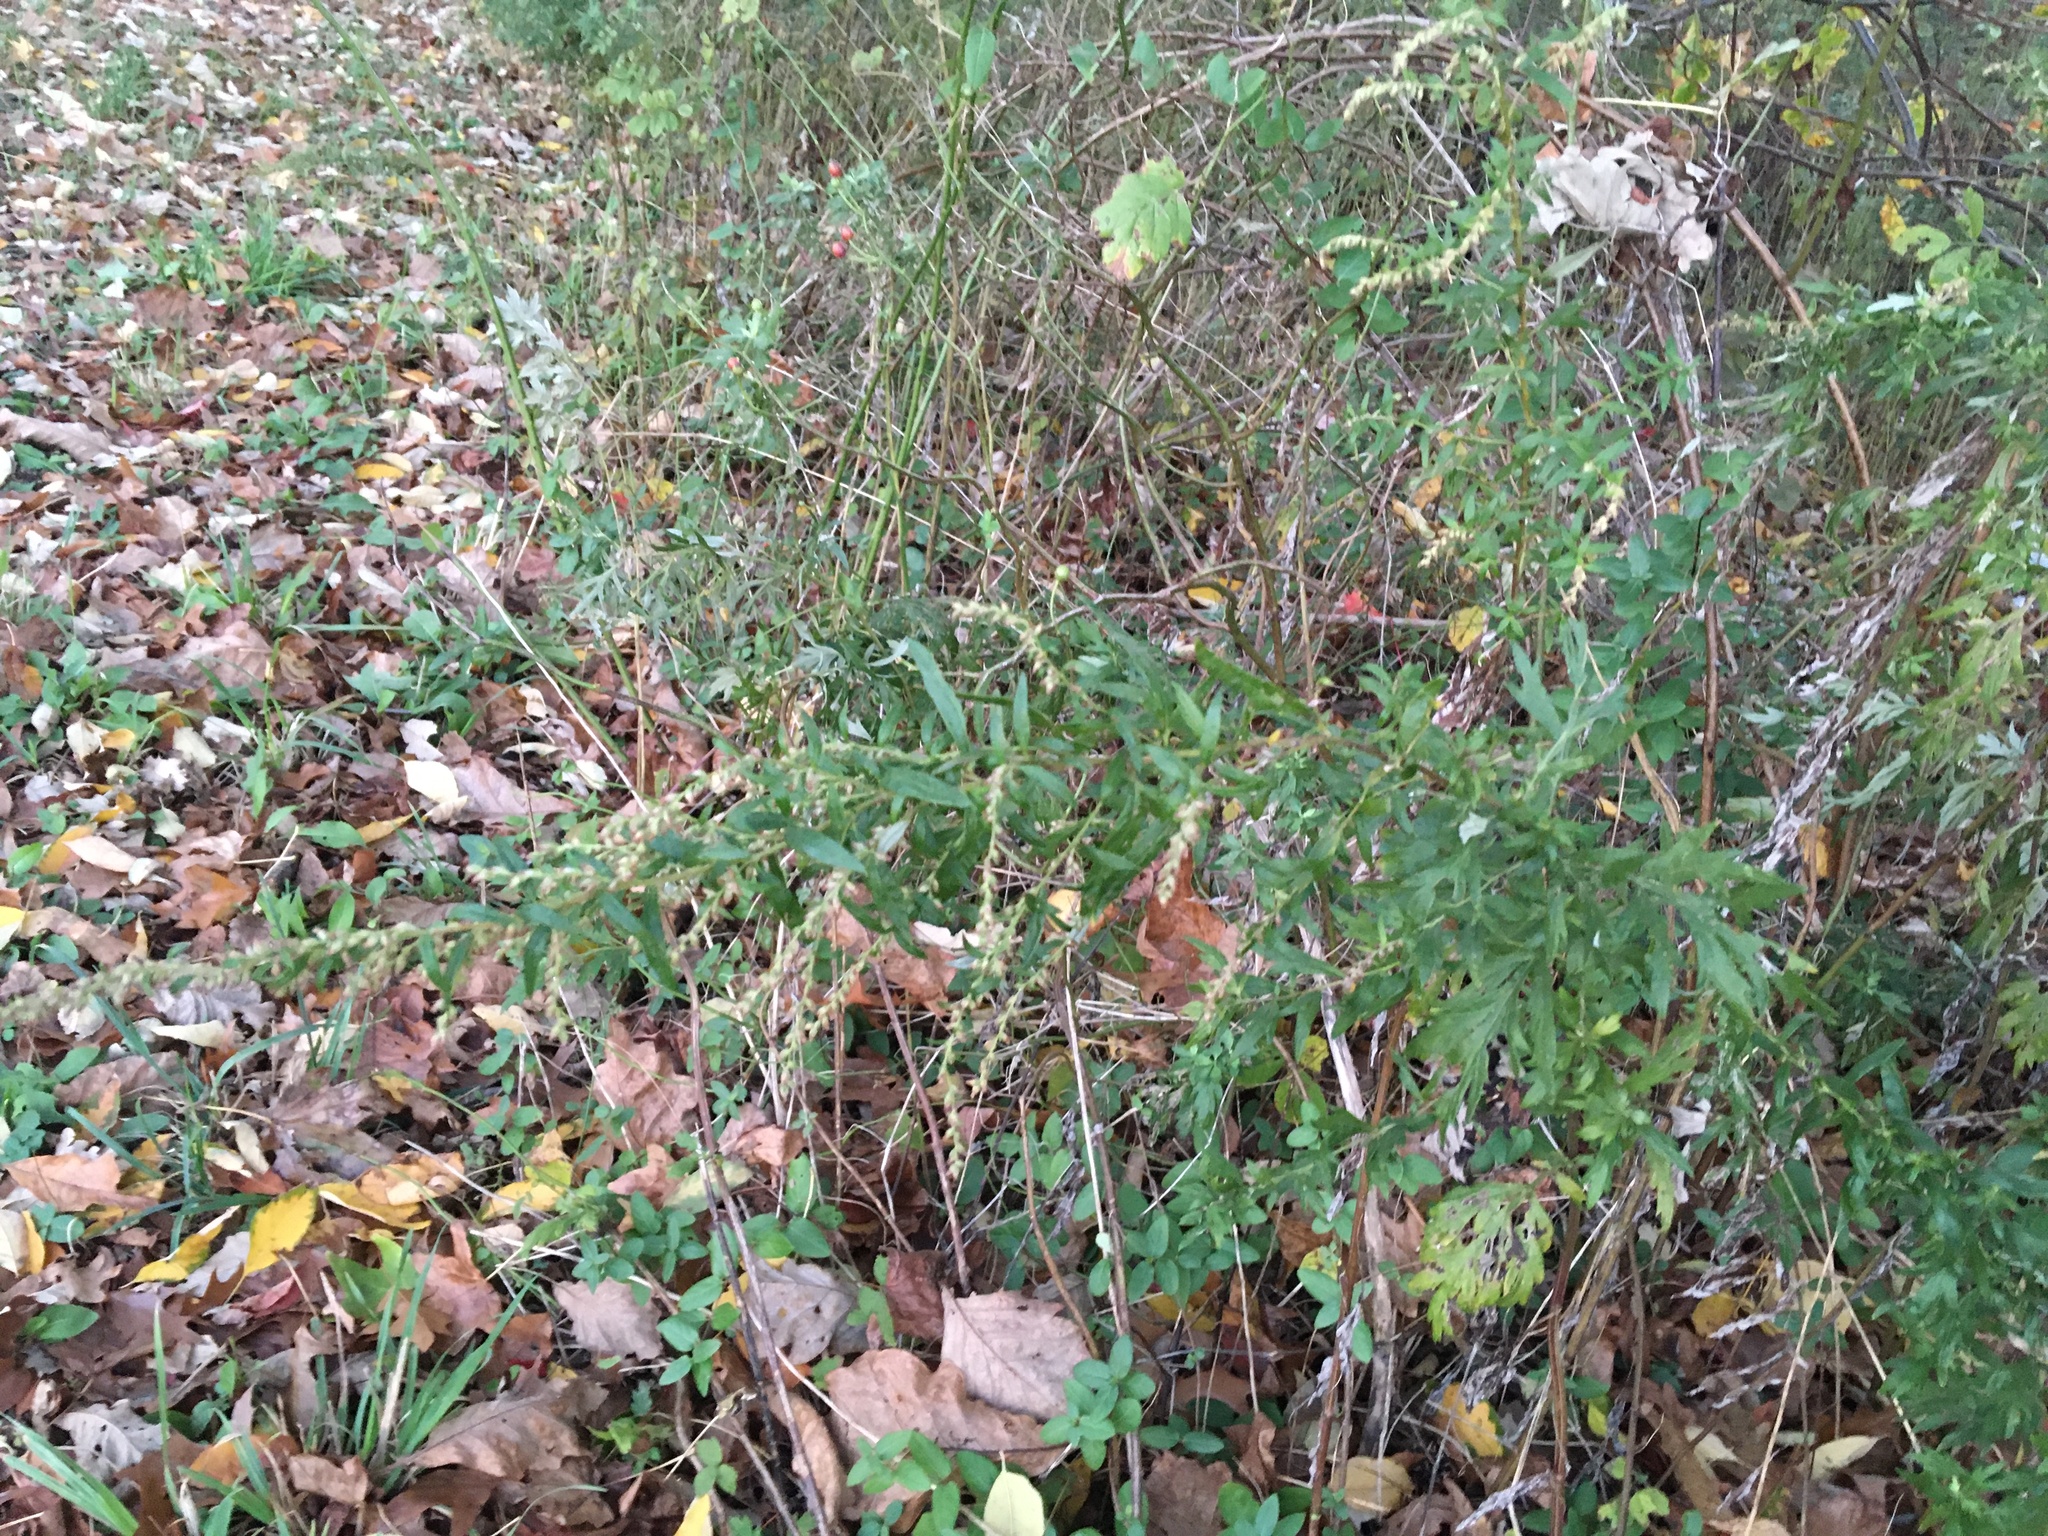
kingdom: Plantae
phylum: Tracheophyta
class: Magnoliopsida
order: Asterales
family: Asteraceae
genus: Artemisia
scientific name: Artemisia vulgaris
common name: Mugwort
